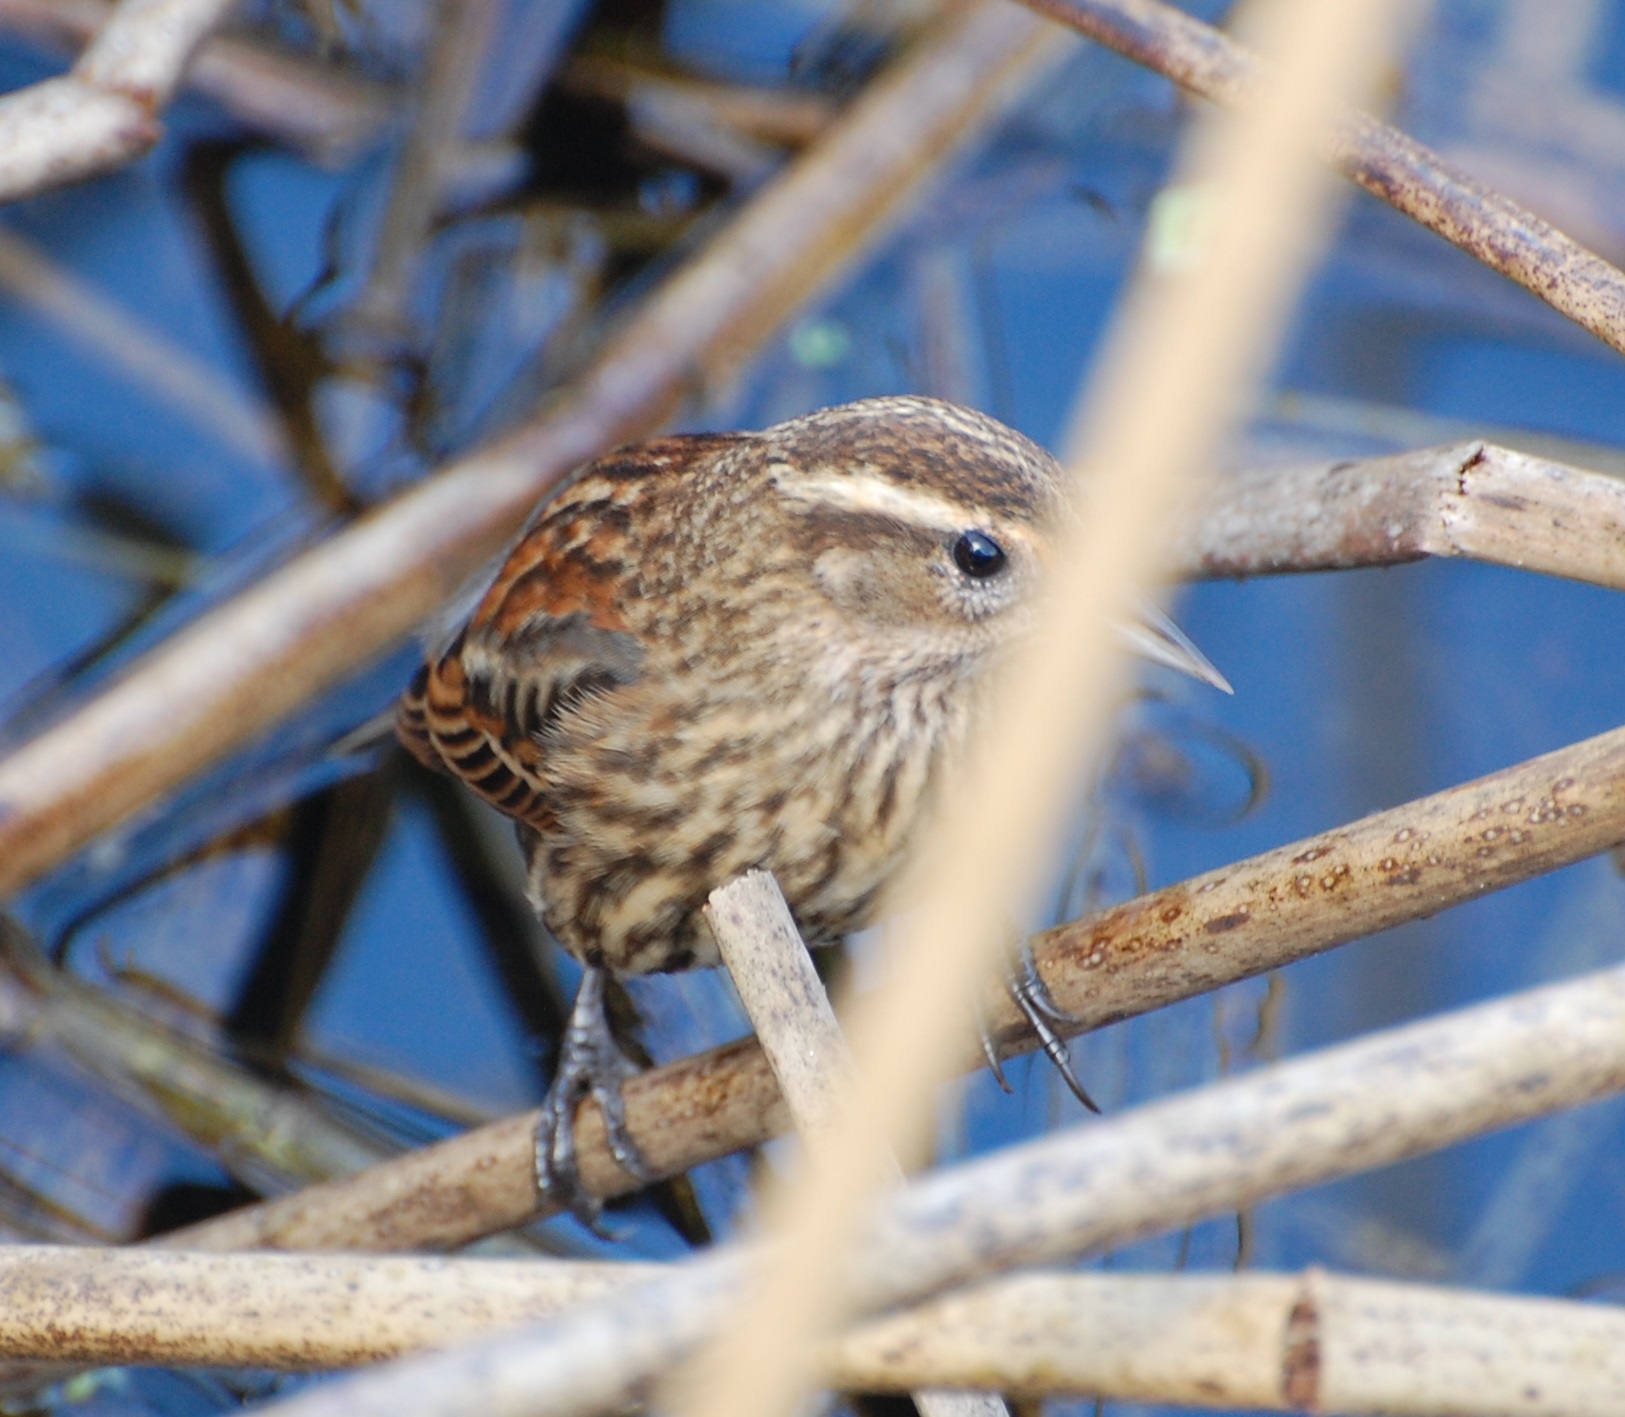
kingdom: Animalia
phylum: Chordata
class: Aves
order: Passeriformes
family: Icteridae
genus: Agelaius
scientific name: Agelaius phoeniceus
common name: Red-winged blackbird
